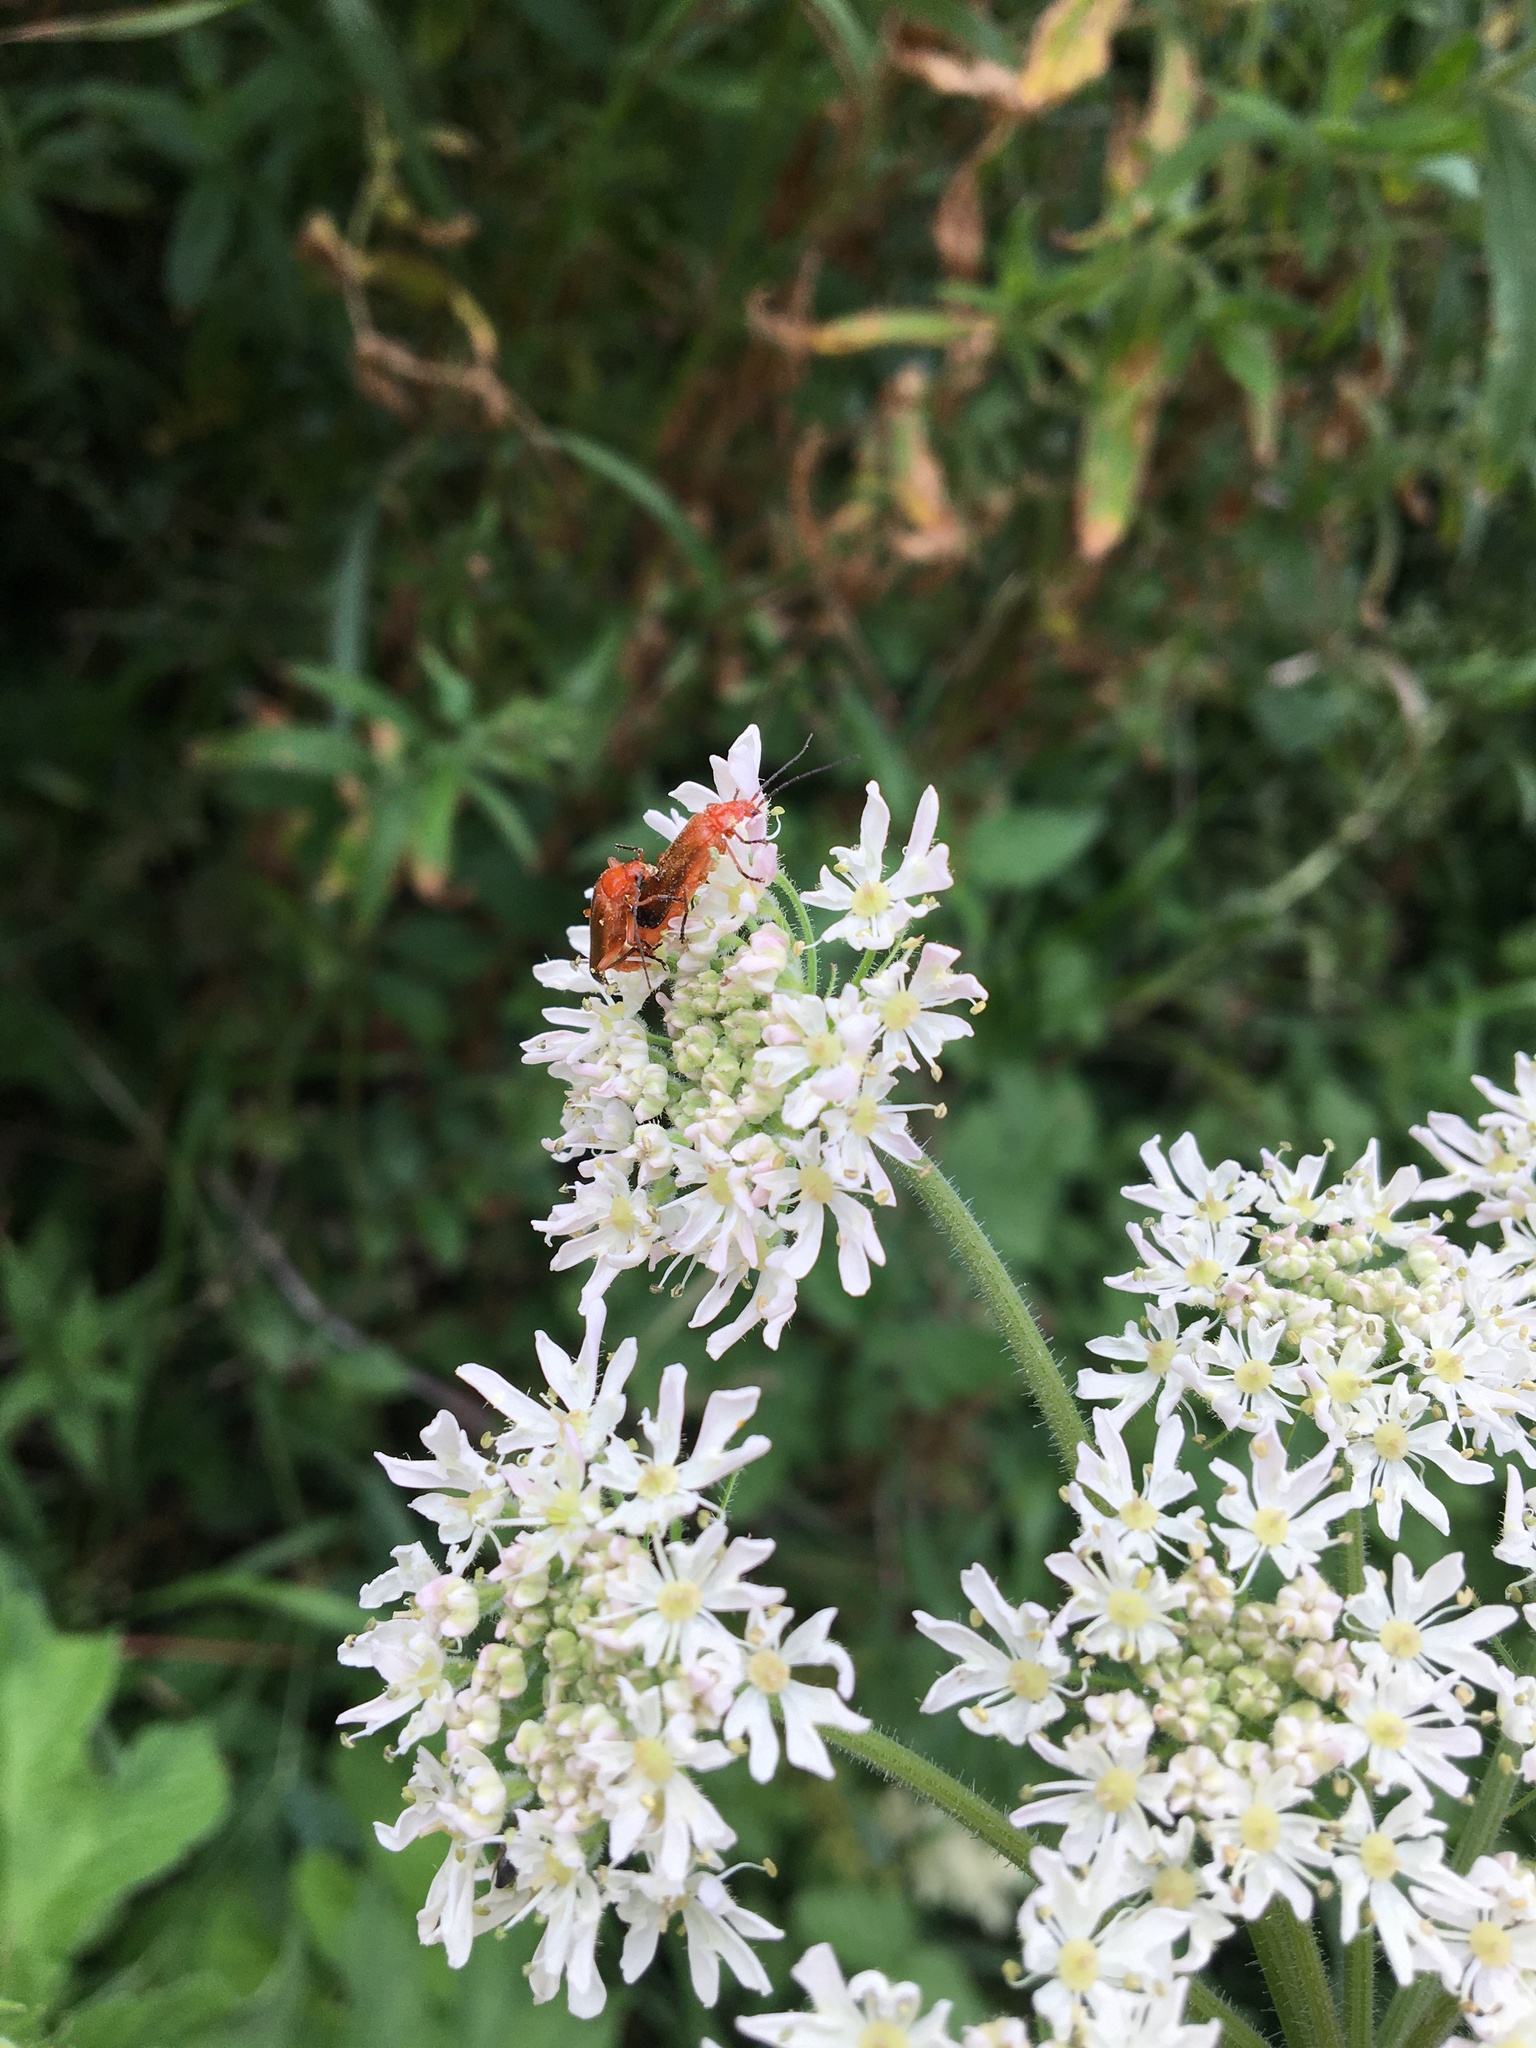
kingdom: Animalia
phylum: Arthropoda
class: Insecta
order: Coleoptera
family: Cantharidae
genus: Rhagonycha
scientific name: Rhagonycha fulva
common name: Common red soldier beetle
